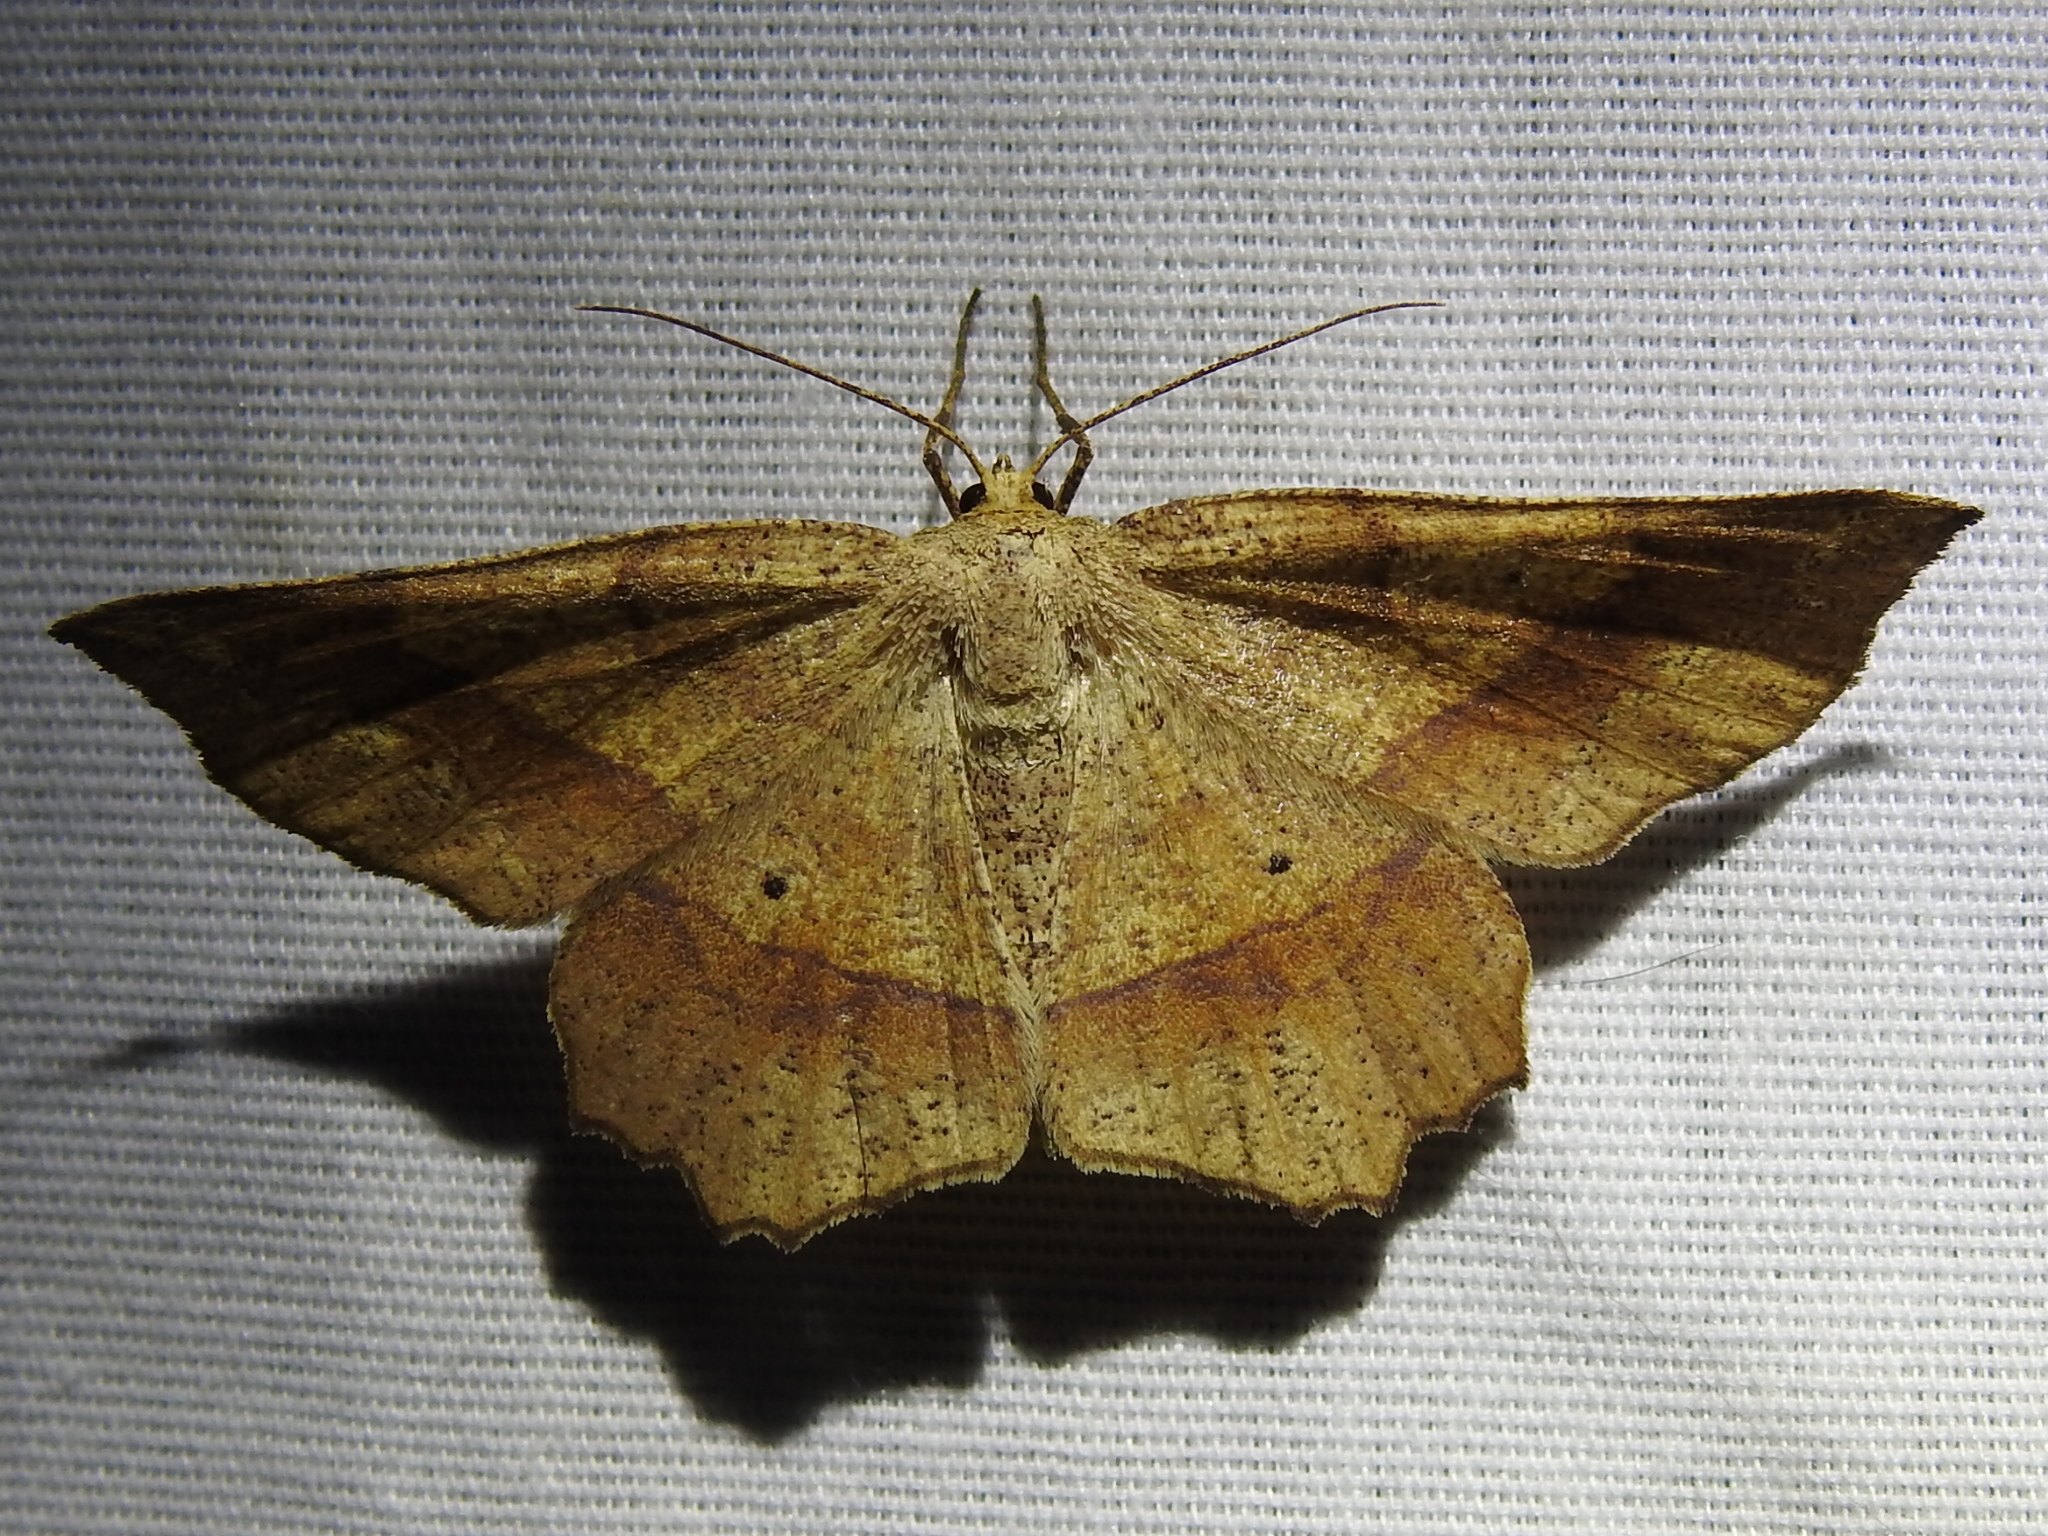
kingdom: Animalia
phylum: Arthropoda
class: Insecta
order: Lepidoptera
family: Geometridae
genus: Euchlaena
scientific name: Euchlaena deplanaria
